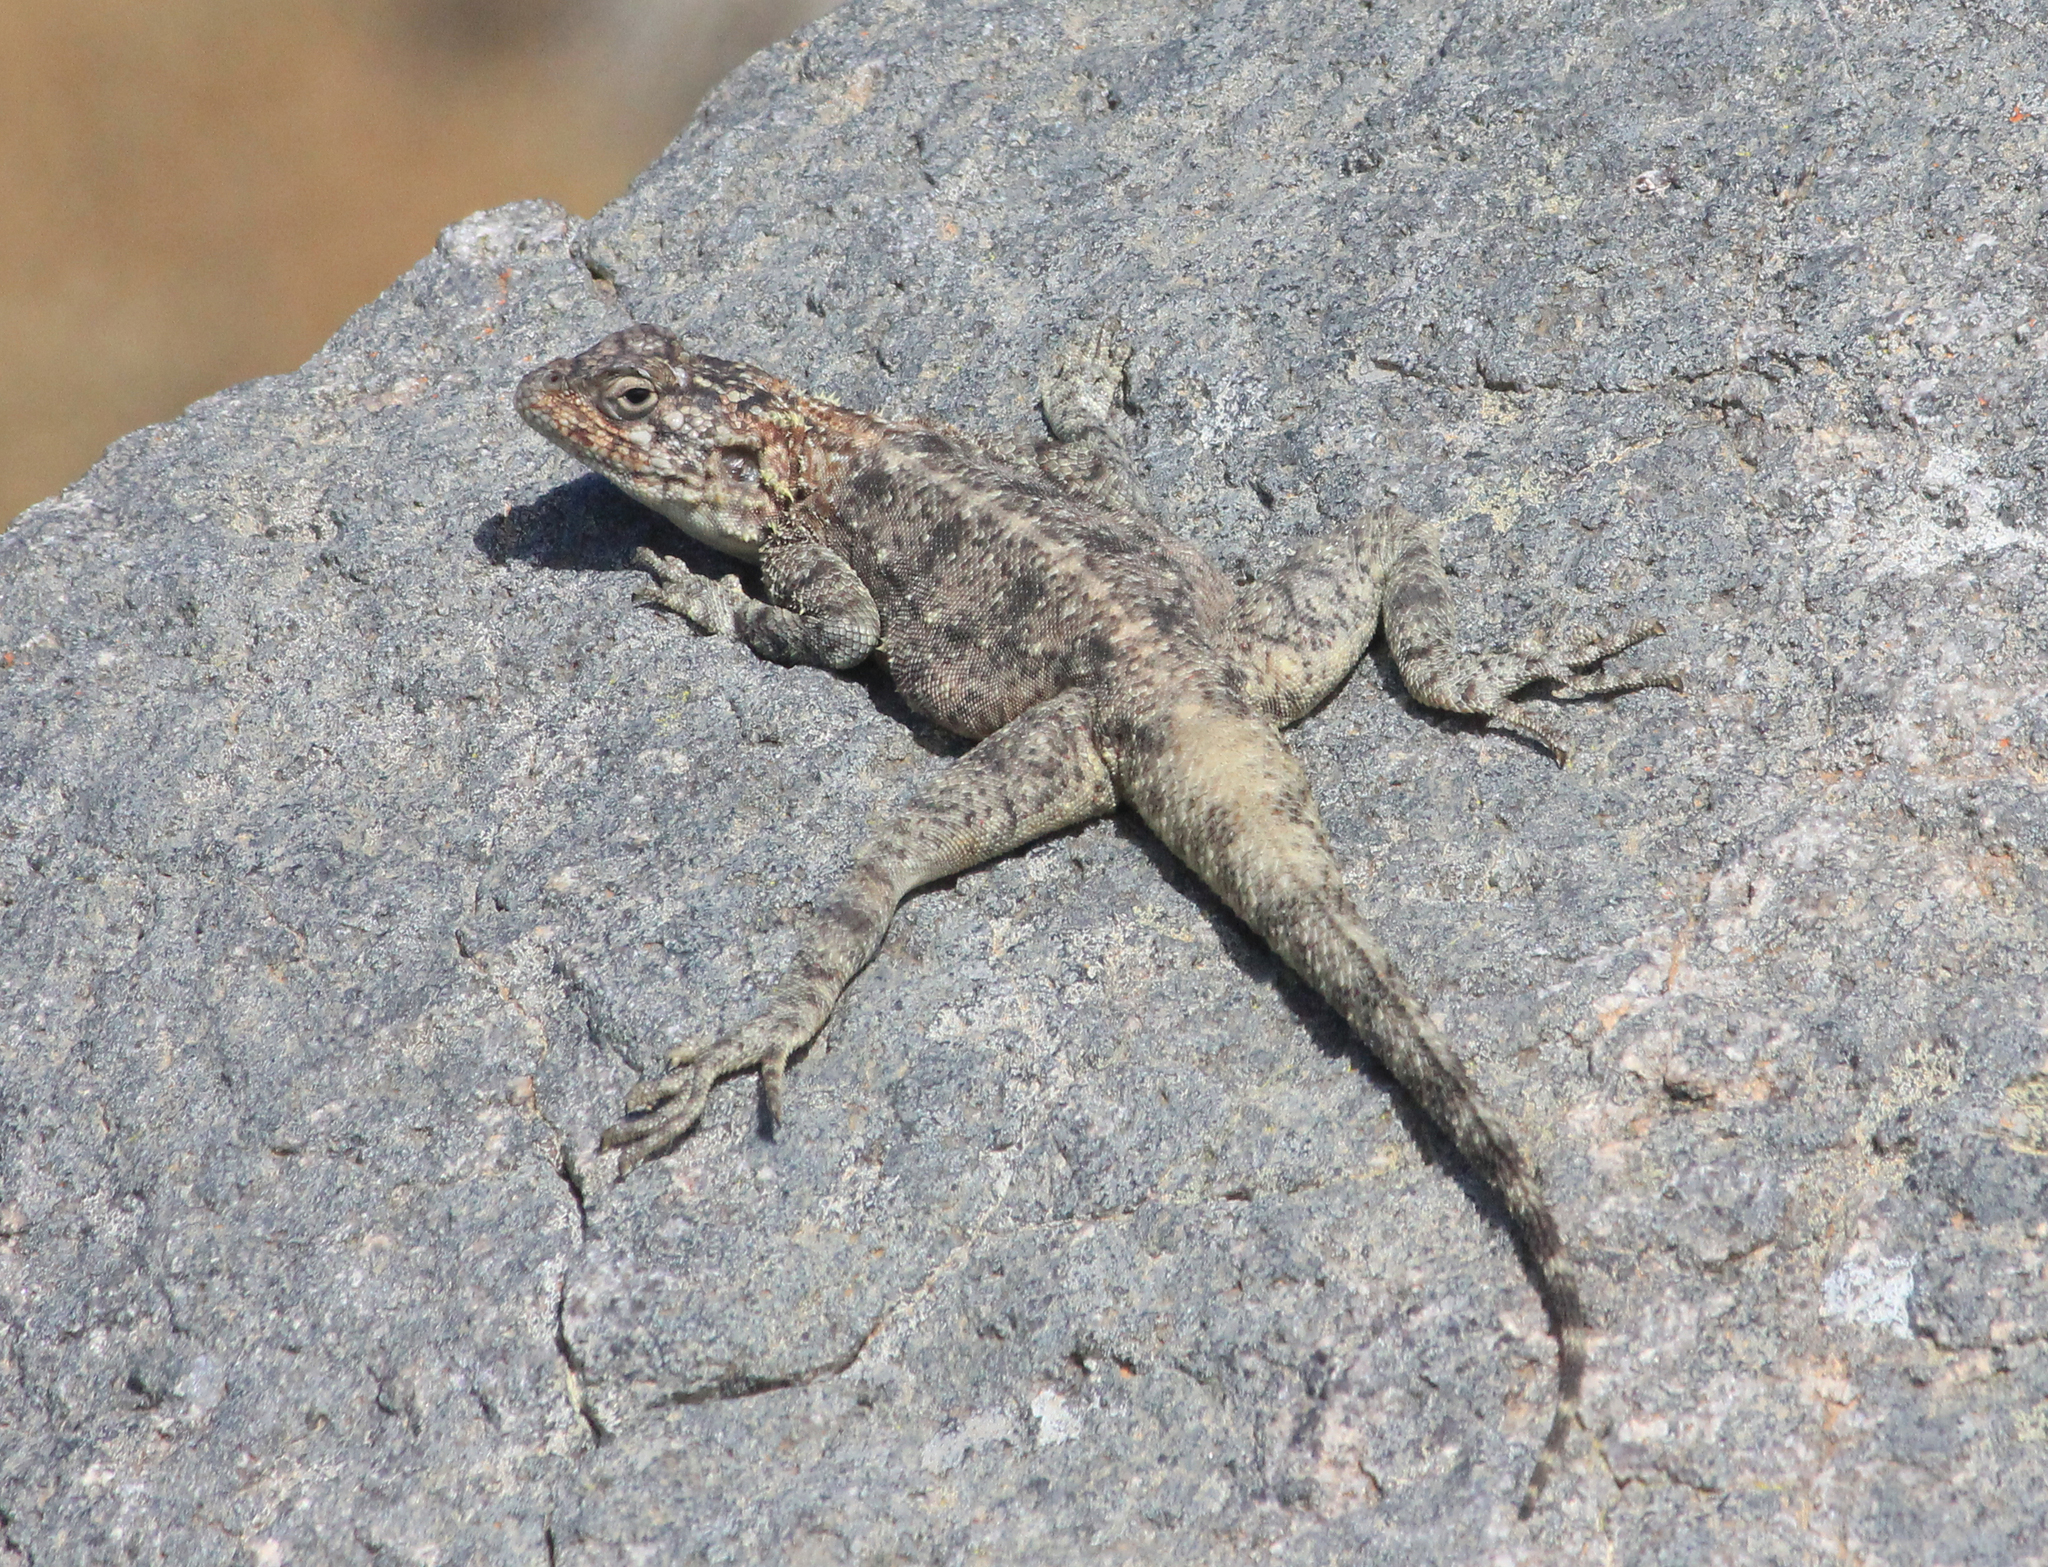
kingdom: Animalia
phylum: Chordata
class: Squamata
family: Agamidae
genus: Agama
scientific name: Agama atra
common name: Southern african rock agama
